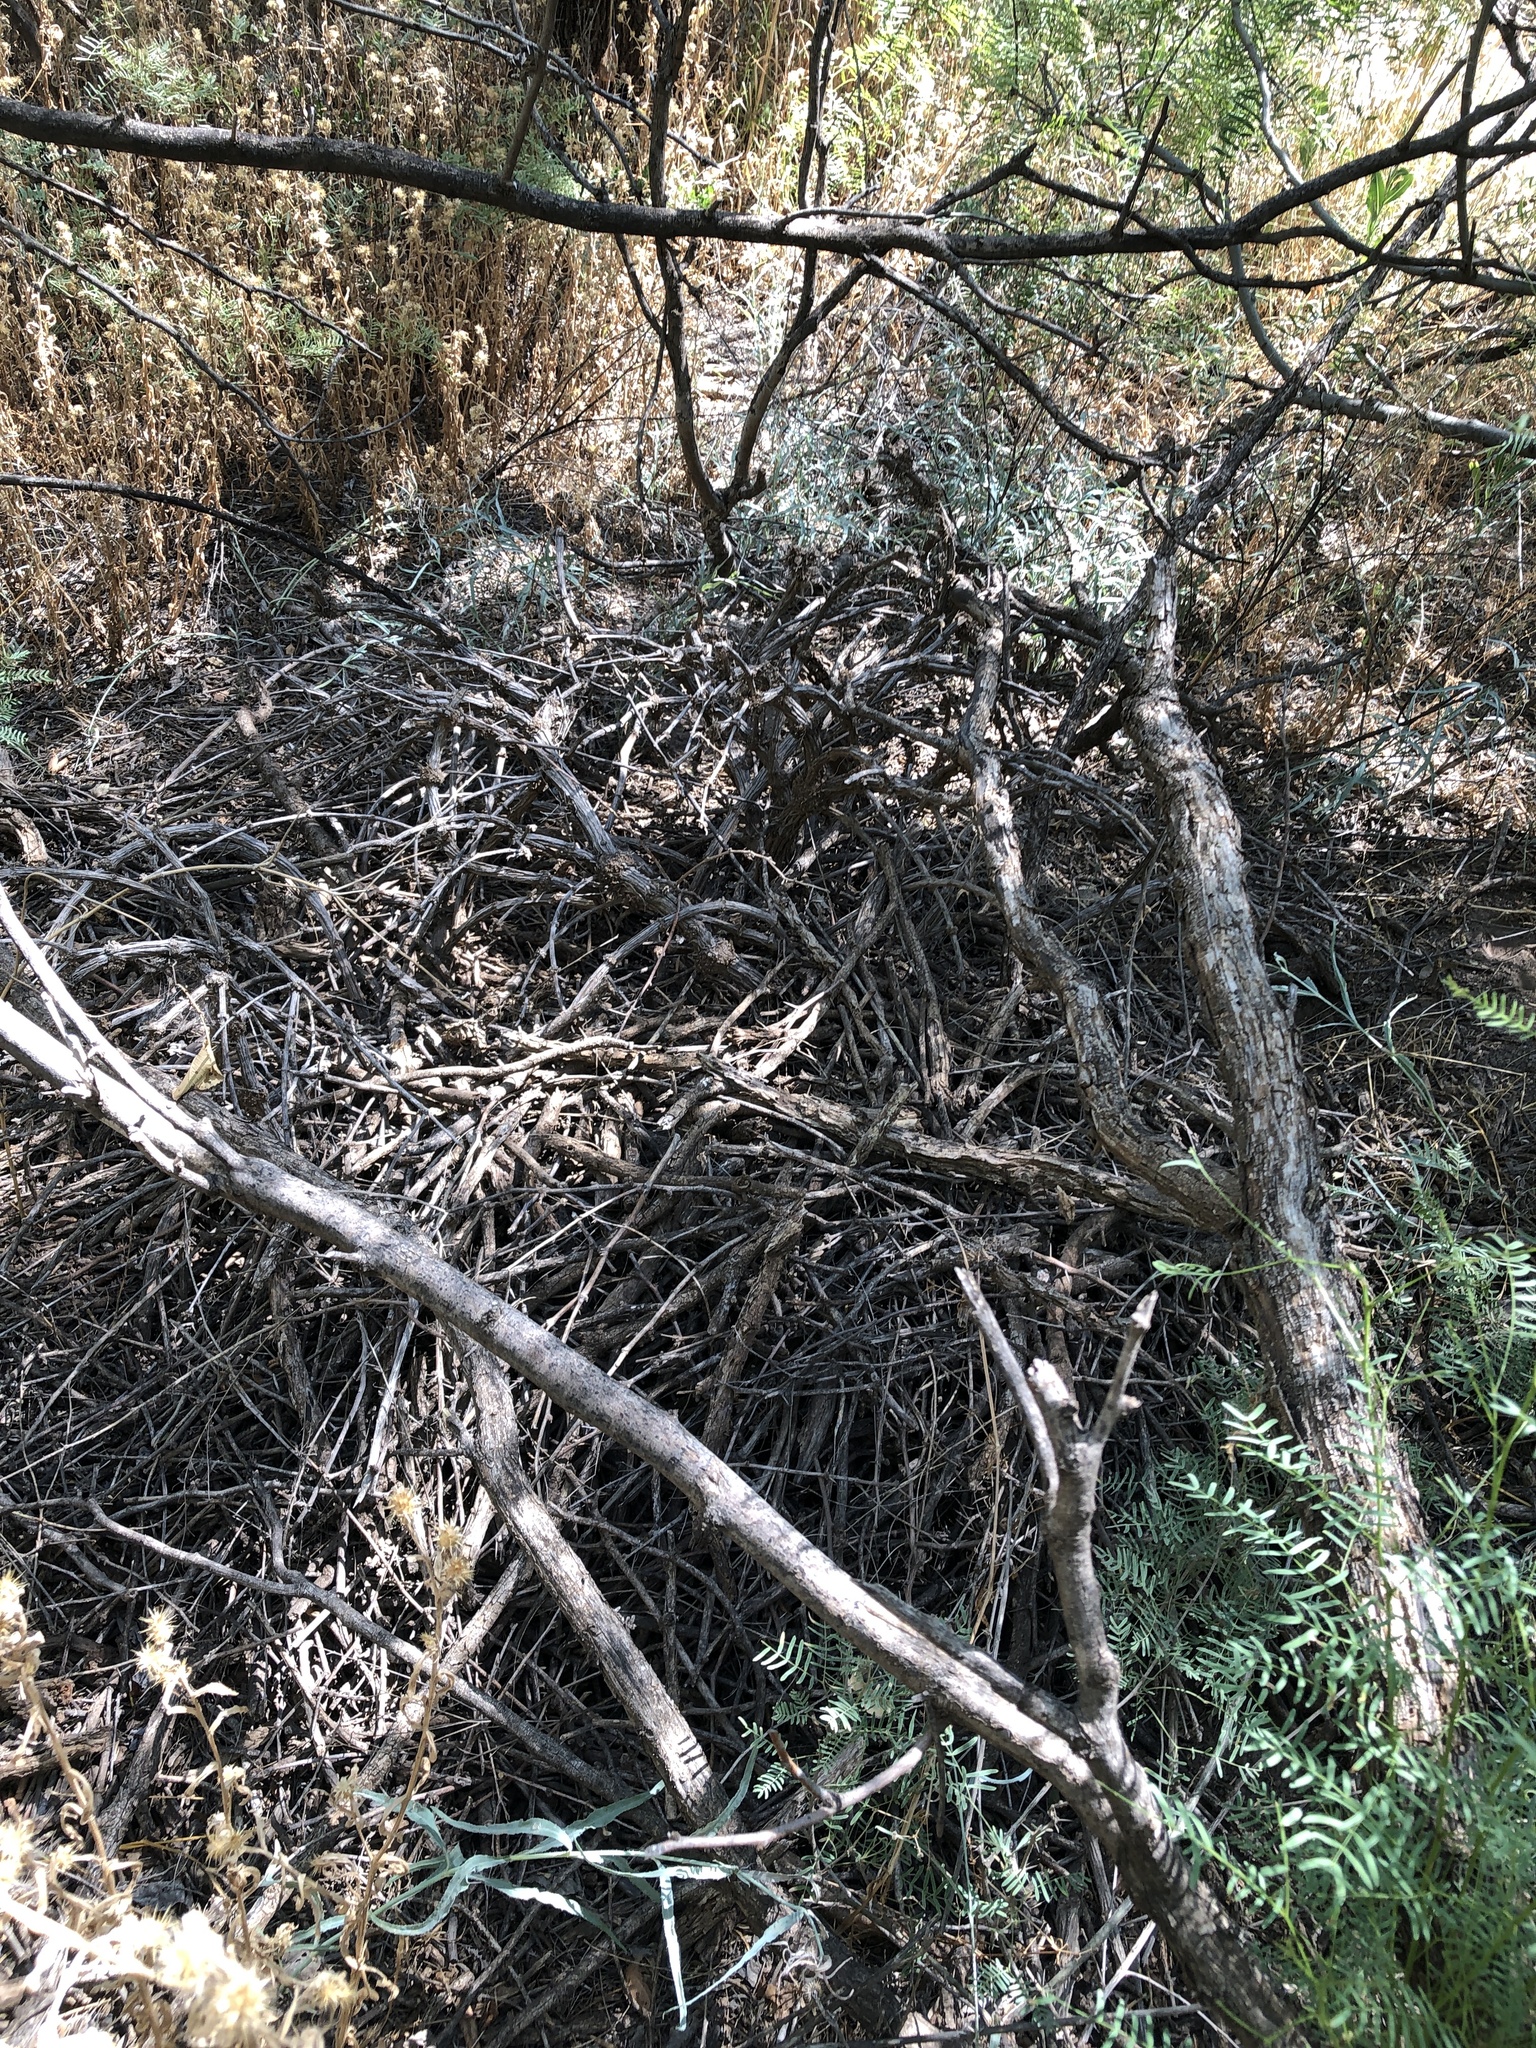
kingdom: Animalia
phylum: Chordata
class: Mammalia
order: Rodentia
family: Cricetidae
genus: Neotoma
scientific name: Neotoma micropus
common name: Southern plains woodrat
